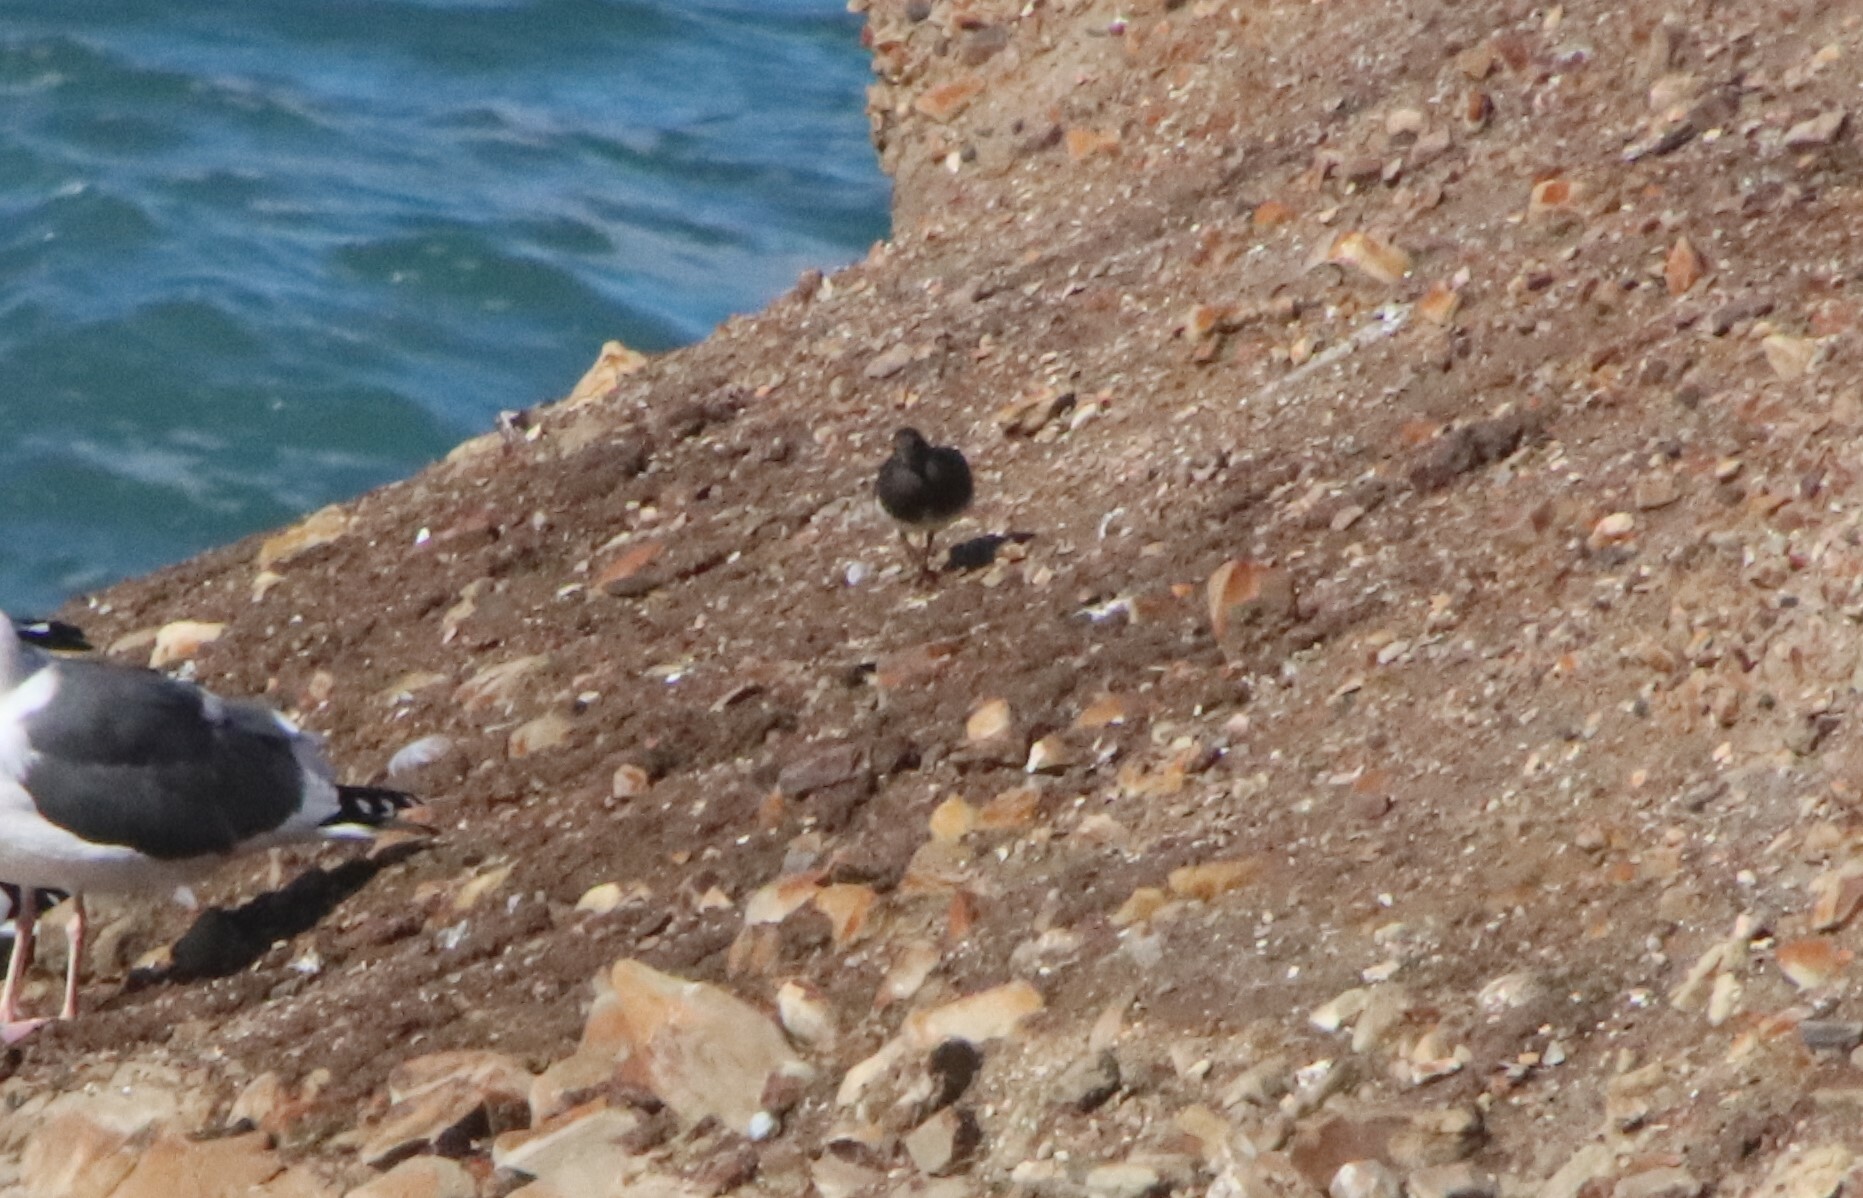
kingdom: Animalia
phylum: Chordata
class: Aves
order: Charadriiformes
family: Scolopacidae
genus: Arenaria
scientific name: Arenaria melanocephala
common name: Black turnstone
